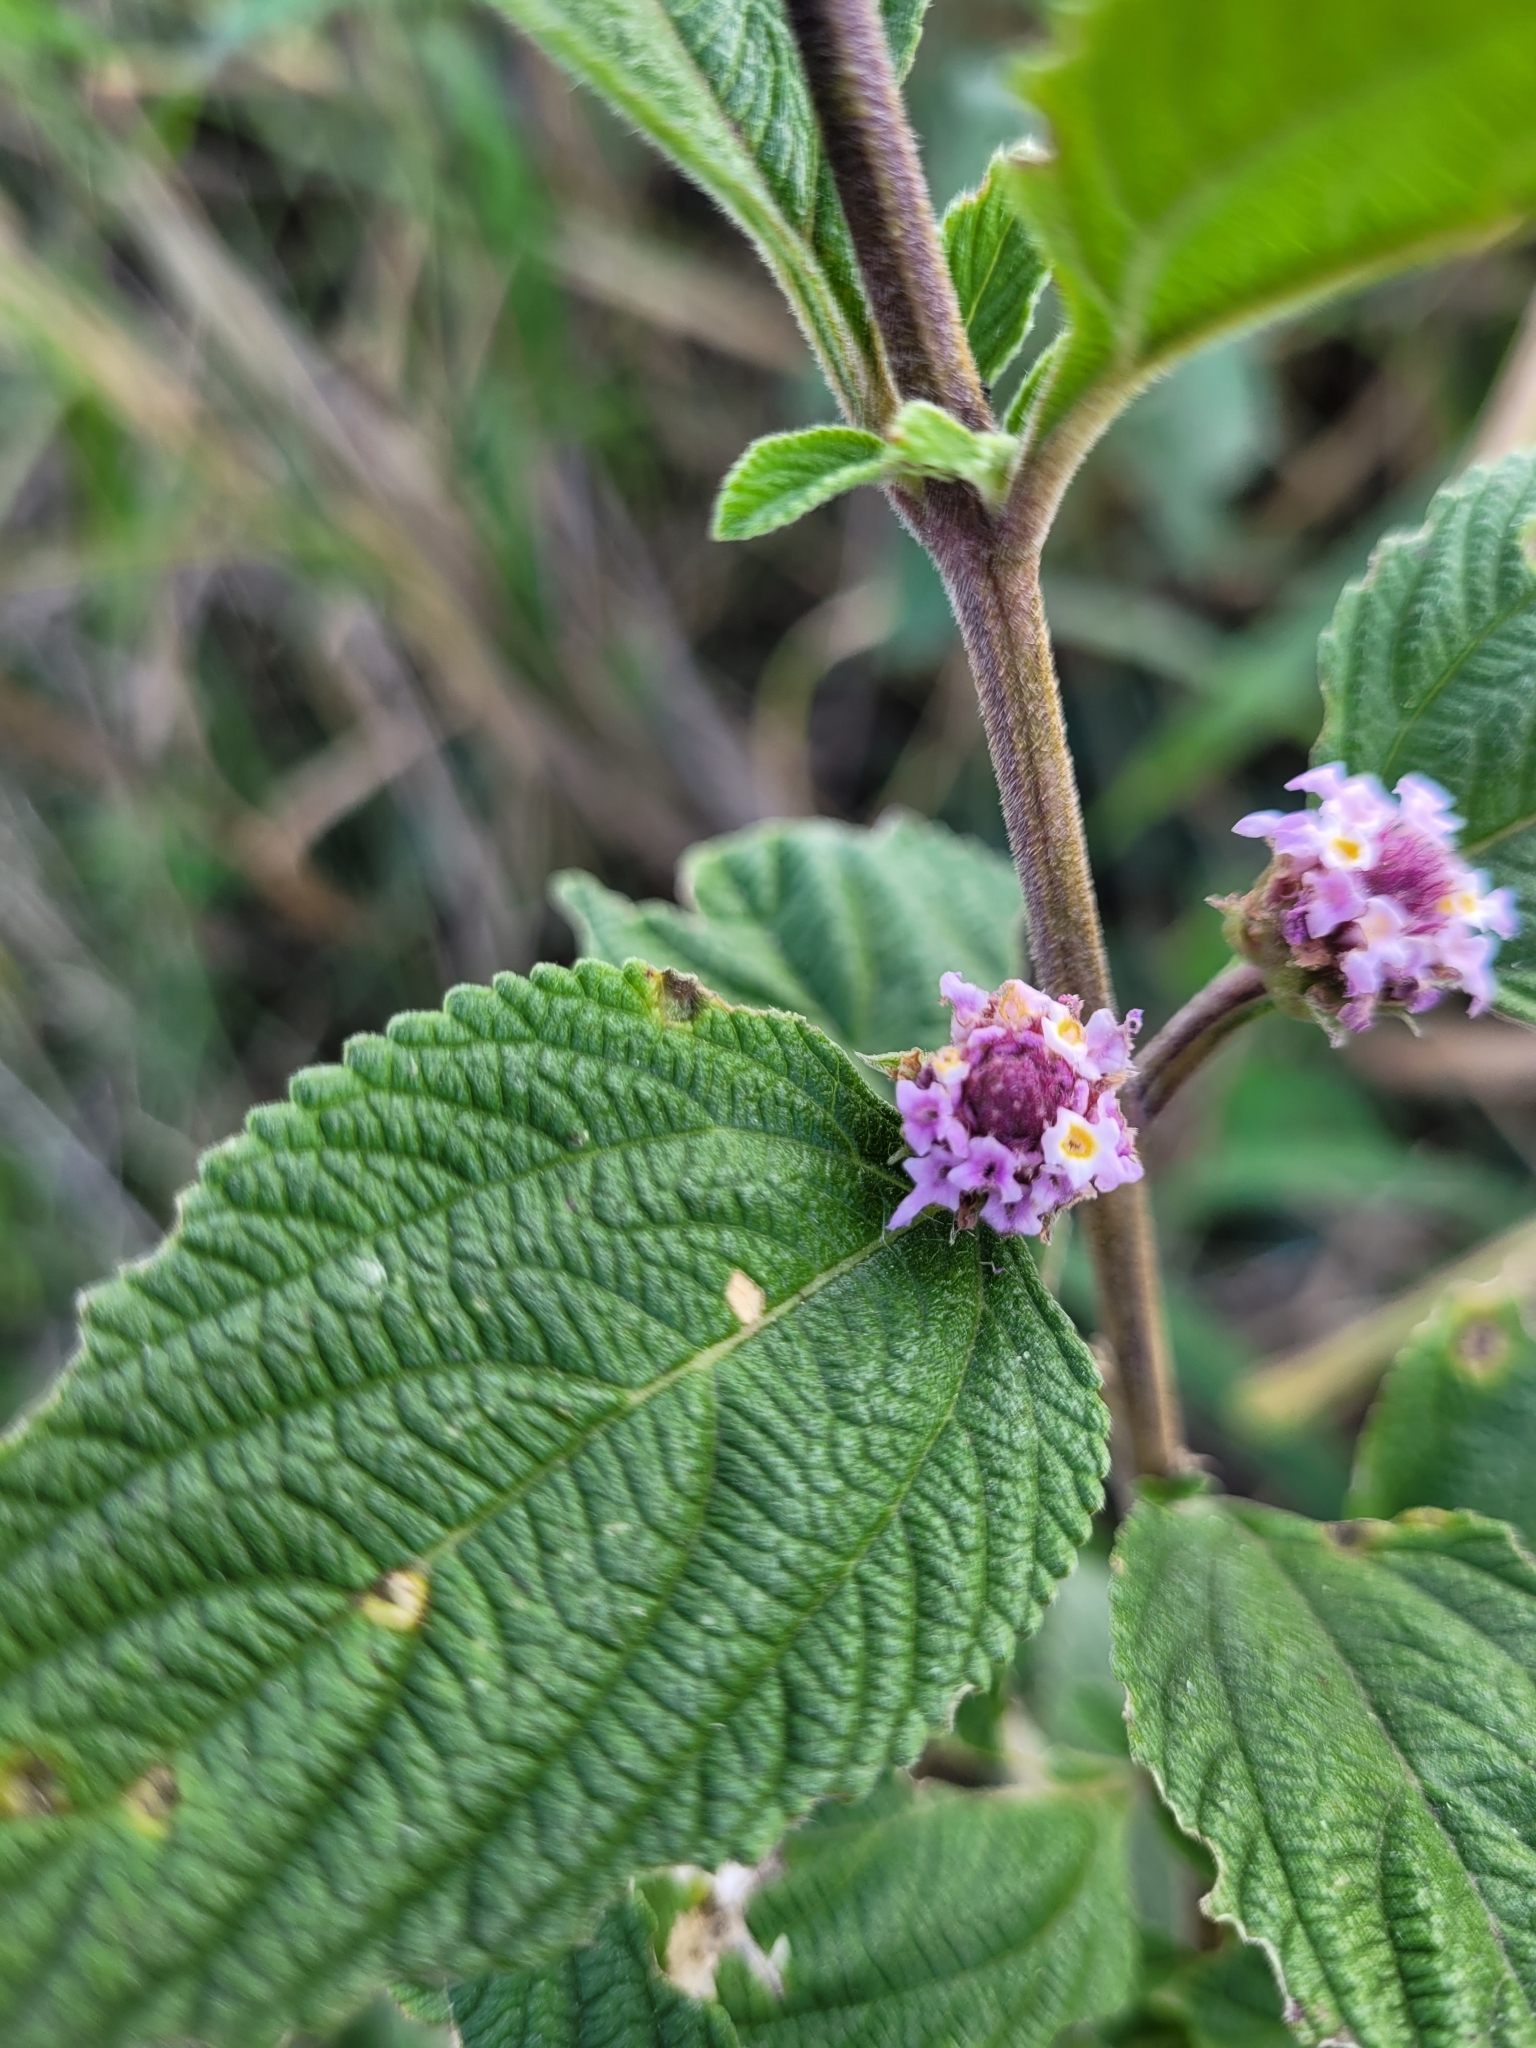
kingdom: Plantae
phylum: Tracheophyta
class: Magnoliopsida
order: Lamiales
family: Verbenaceae
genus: Lippia
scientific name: Lippia alba
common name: Bushy matgrass
